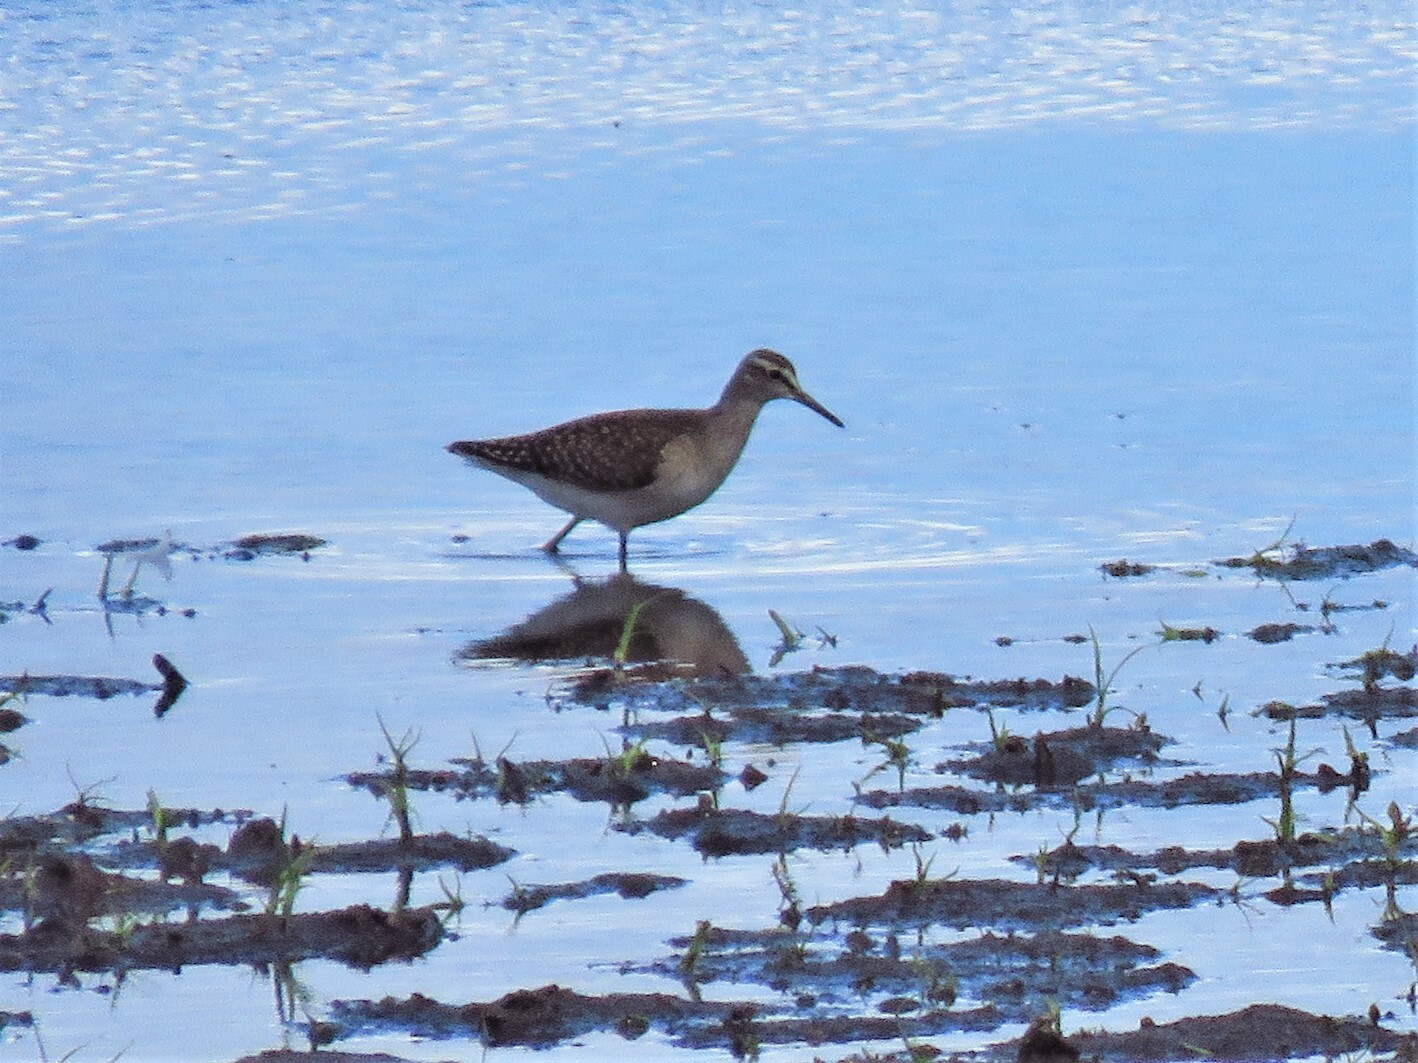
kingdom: Animalia
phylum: Chordata
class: Aves
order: Charadriiformes
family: Scolopacidae
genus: Tringa
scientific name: Tringa glareola
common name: Wood sandpiper
